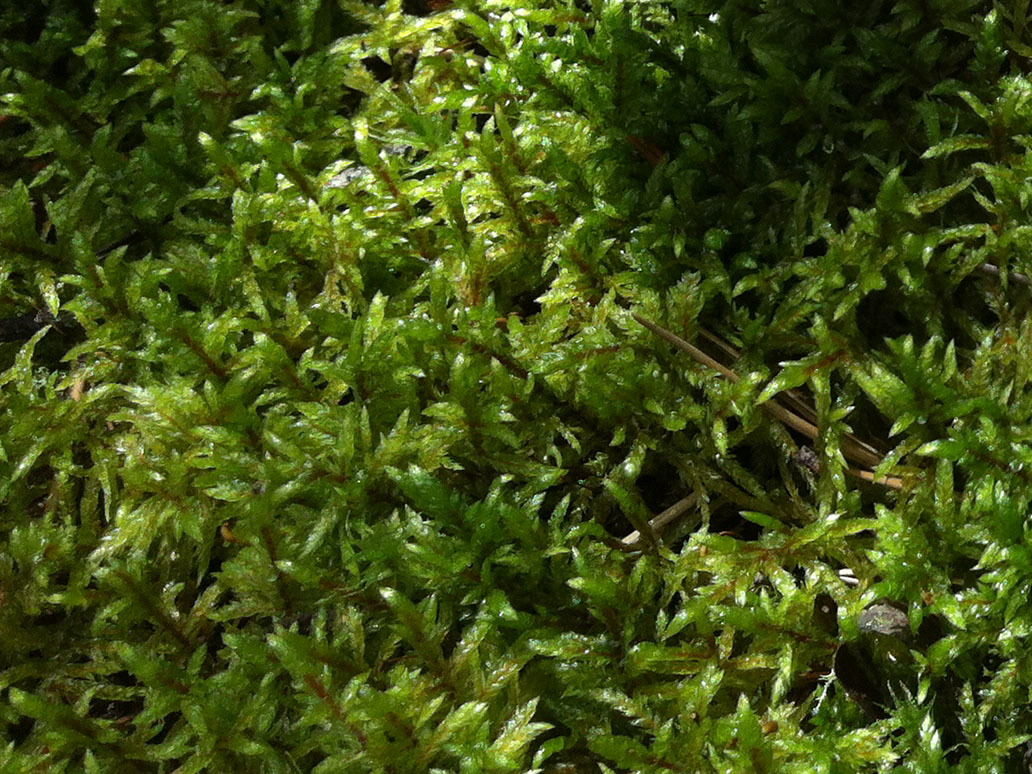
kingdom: Plantae
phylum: Bryophyta
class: Bryopsida
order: Hypnales
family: Hylocomiaceae
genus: Pleurozium
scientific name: Pleurozium schreberi
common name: Red-stemmed feather moss
